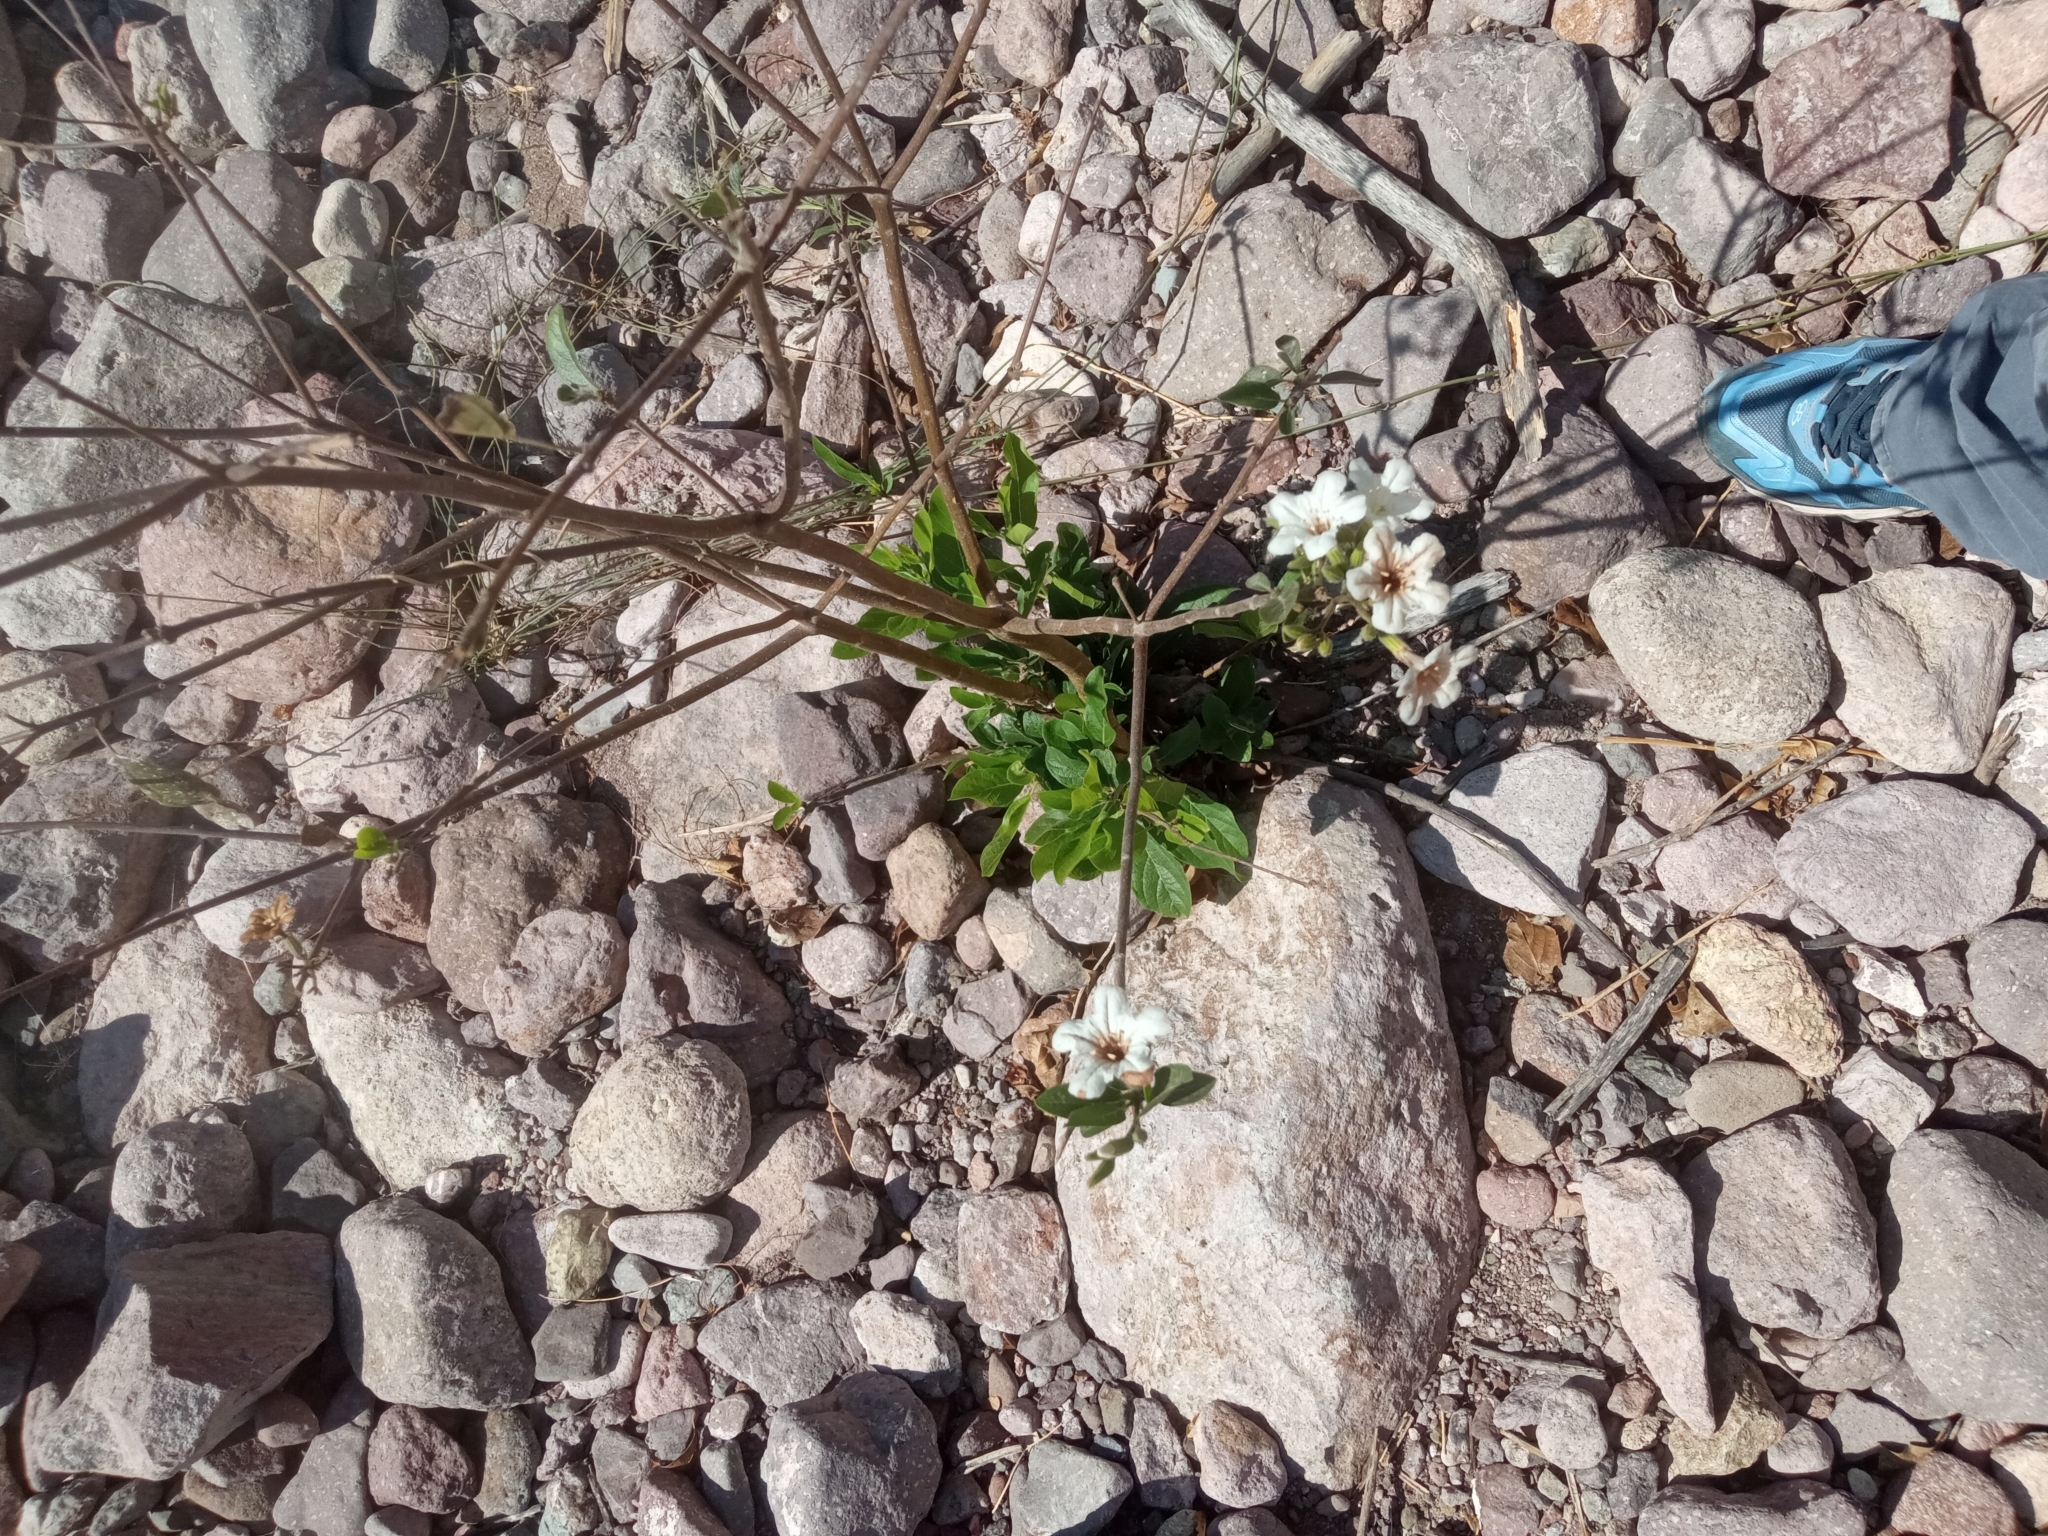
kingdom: Plantae
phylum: Tracheophyta
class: Magnoliopsida
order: Boraginales
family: Cordiaceae
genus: Cordia
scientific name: Cordia sonorae
